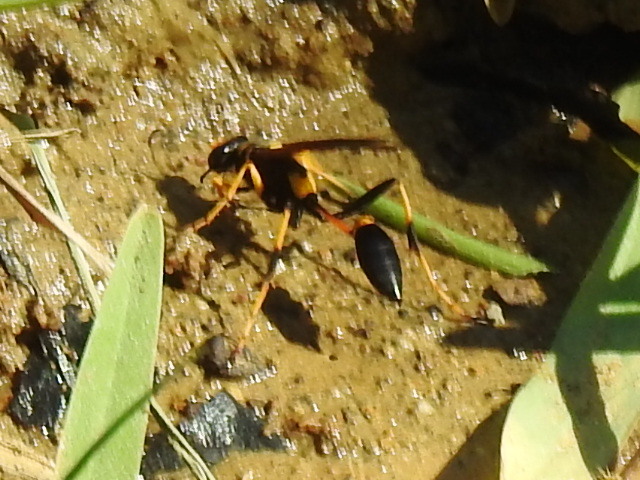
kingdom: Animalia
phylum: Arthropoda
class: Insecta
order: Hymenoptera
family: Sphecidae
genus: Sceliphron
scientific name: Sceliphron caementarium
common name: Mud dauber
